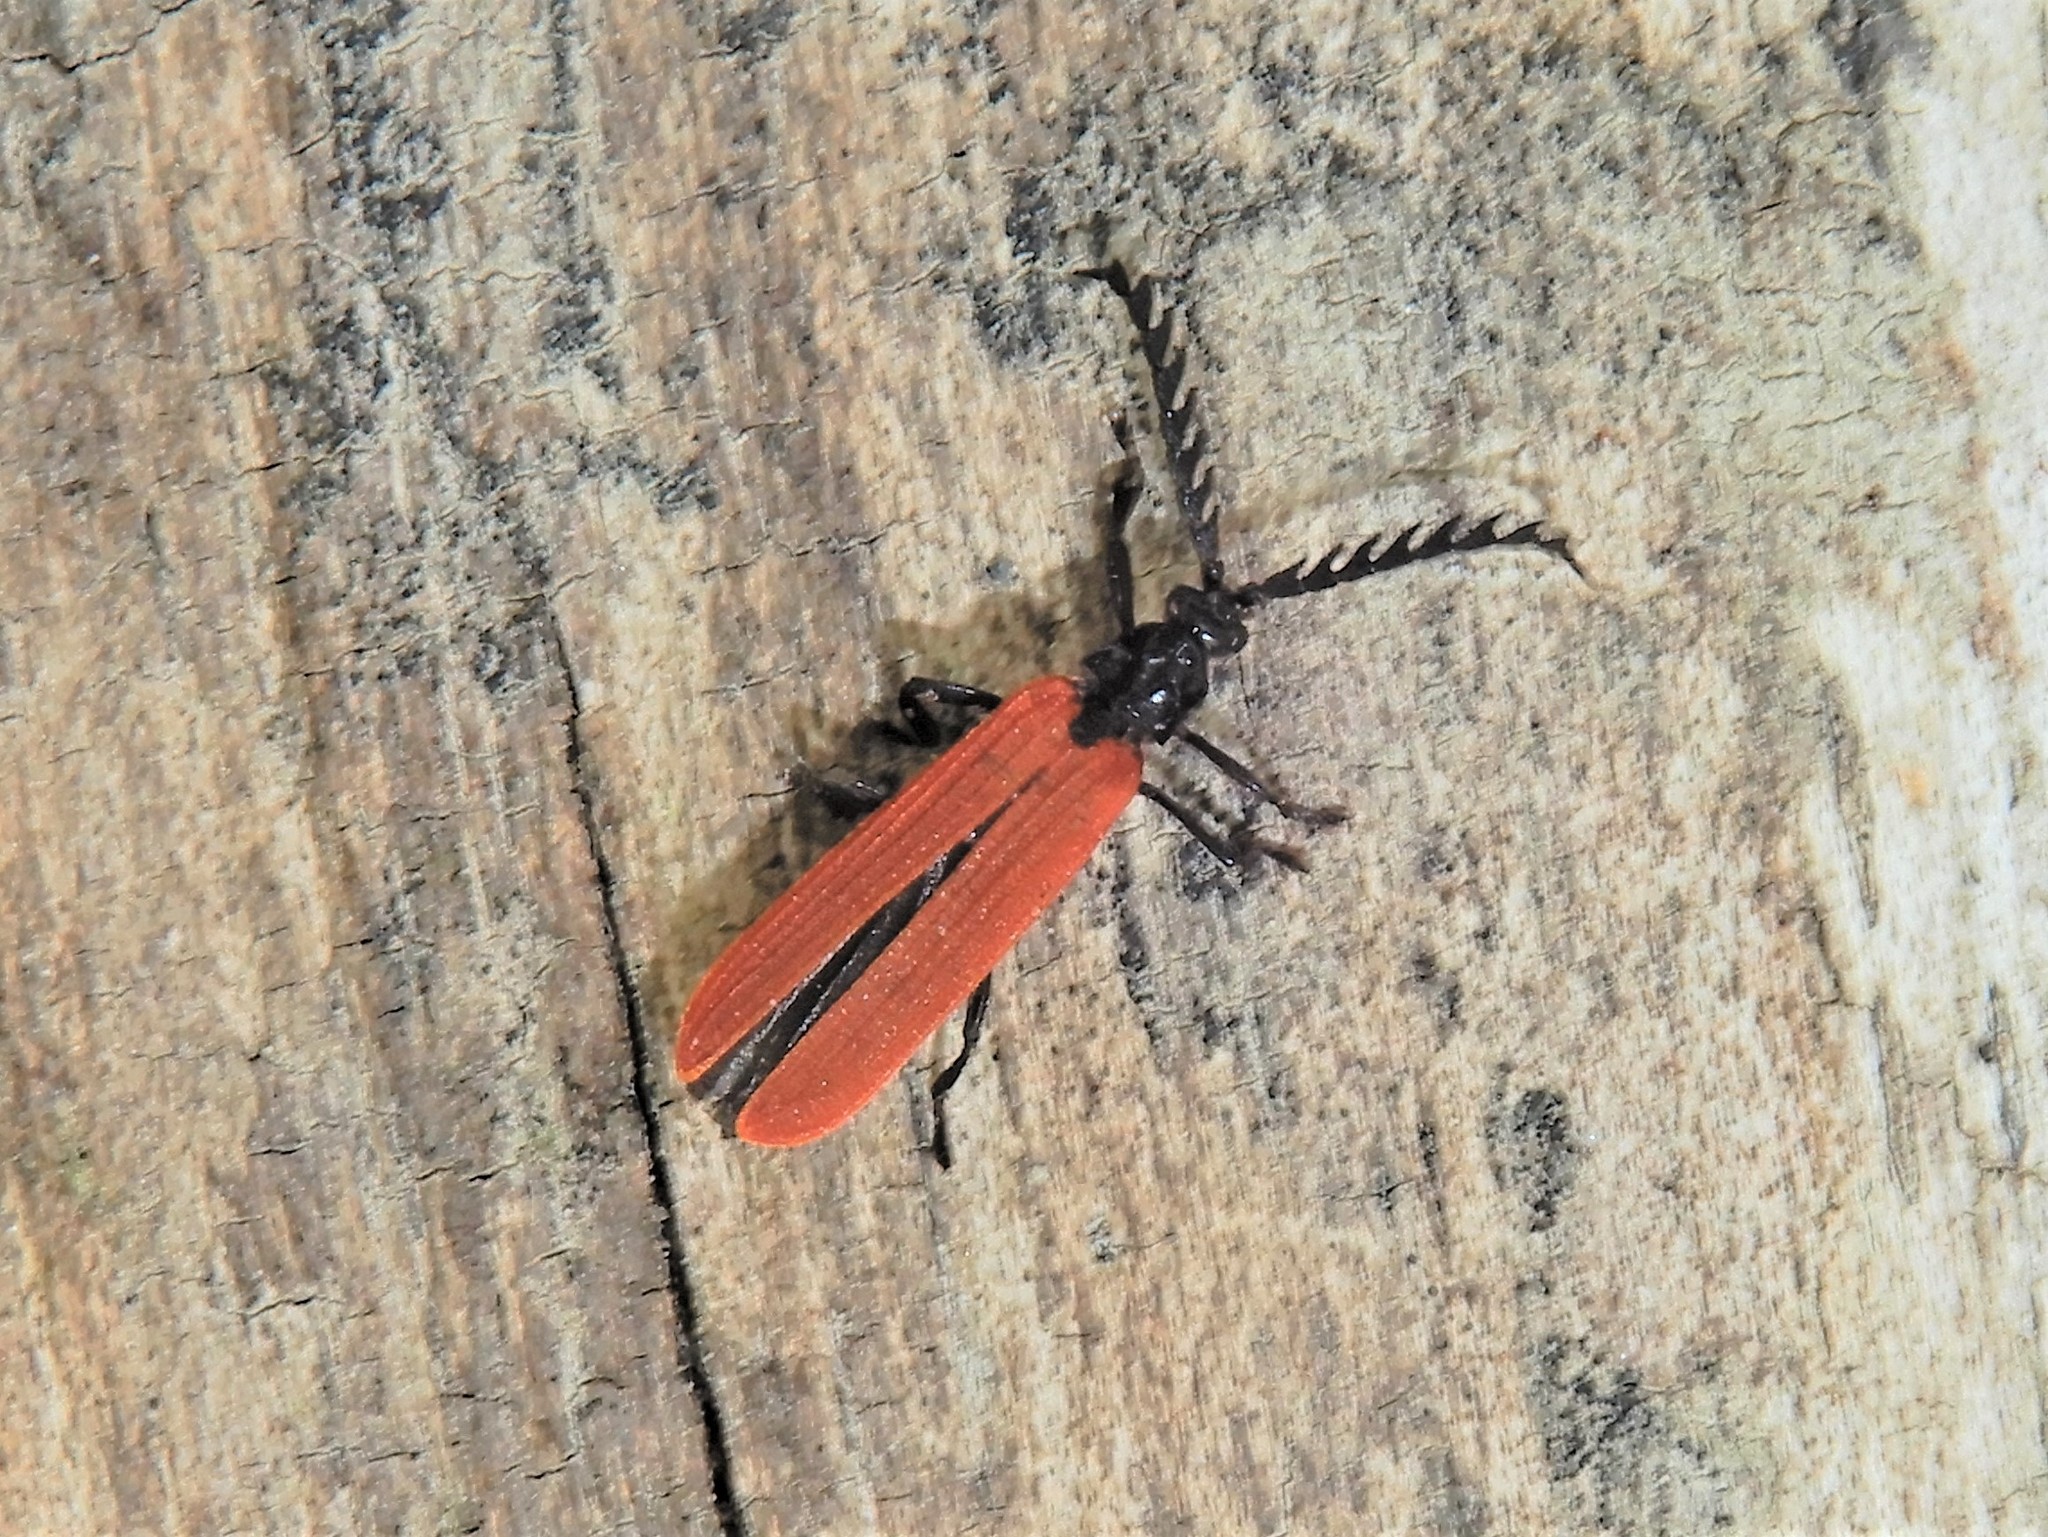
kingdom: Animalia
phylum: Arthropoda
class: Insecta
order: Coleoptera
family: Lycidae
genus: Porrostoma
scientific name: Porrostoma rufipenne
